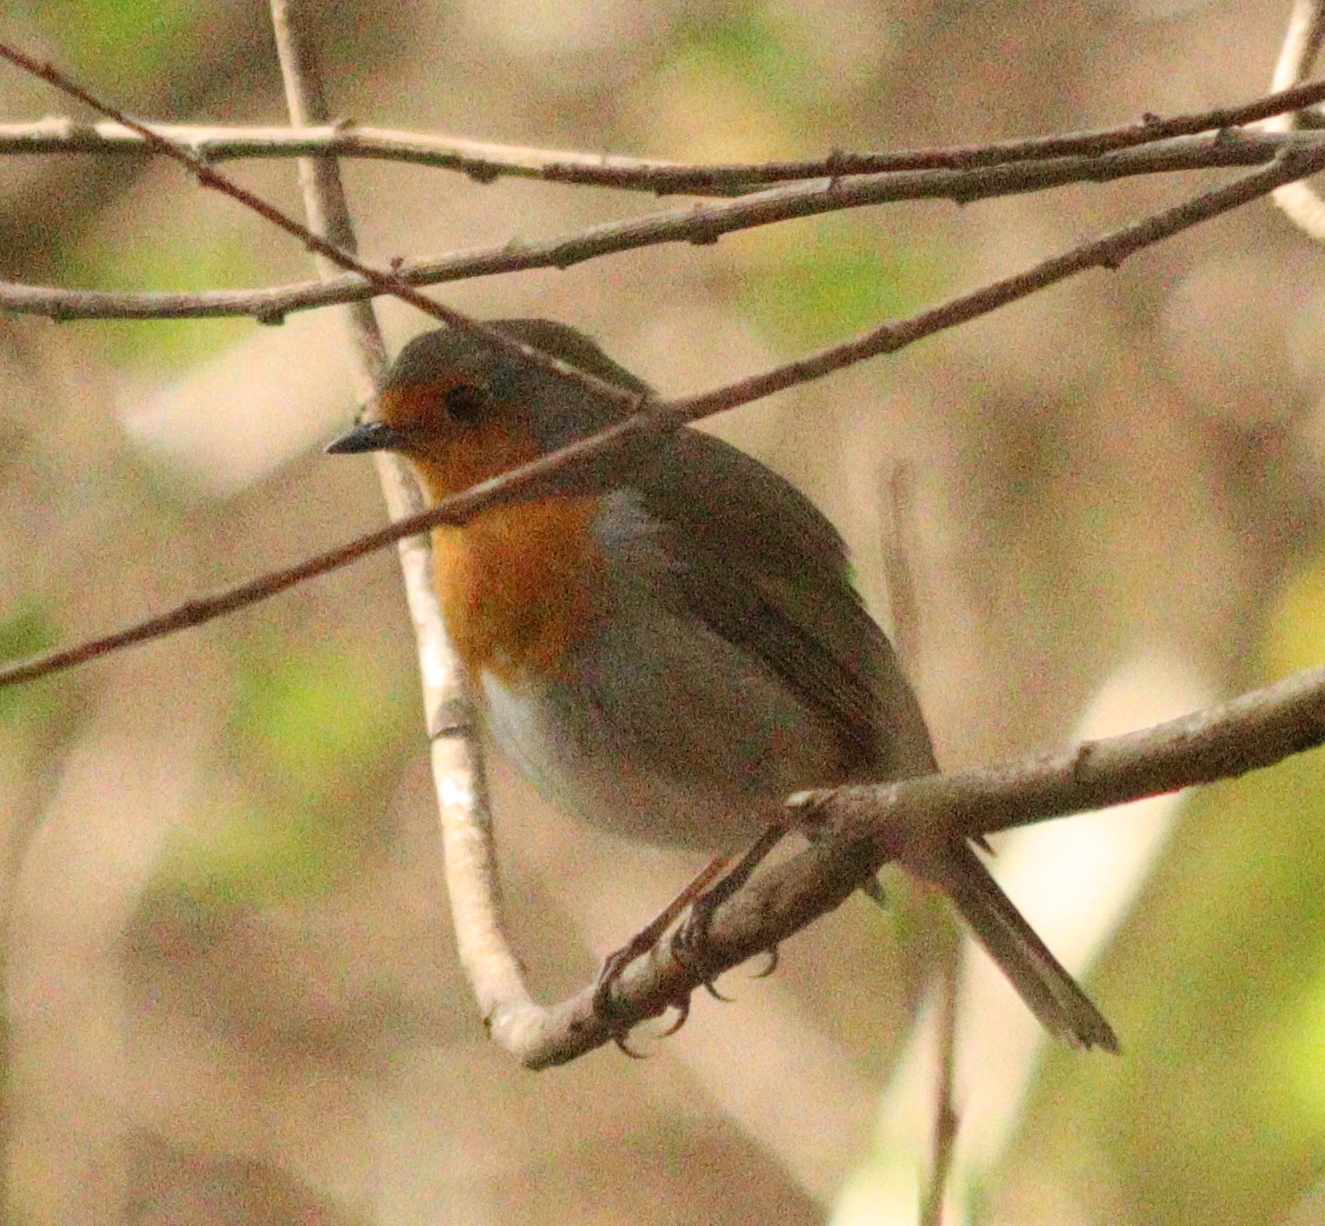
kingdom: Animalia
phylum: Chordata
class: Aves
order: Passeriformes
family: Muscicapidae
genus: Erithacus
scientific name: Erithacus rubecula
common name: European robin
